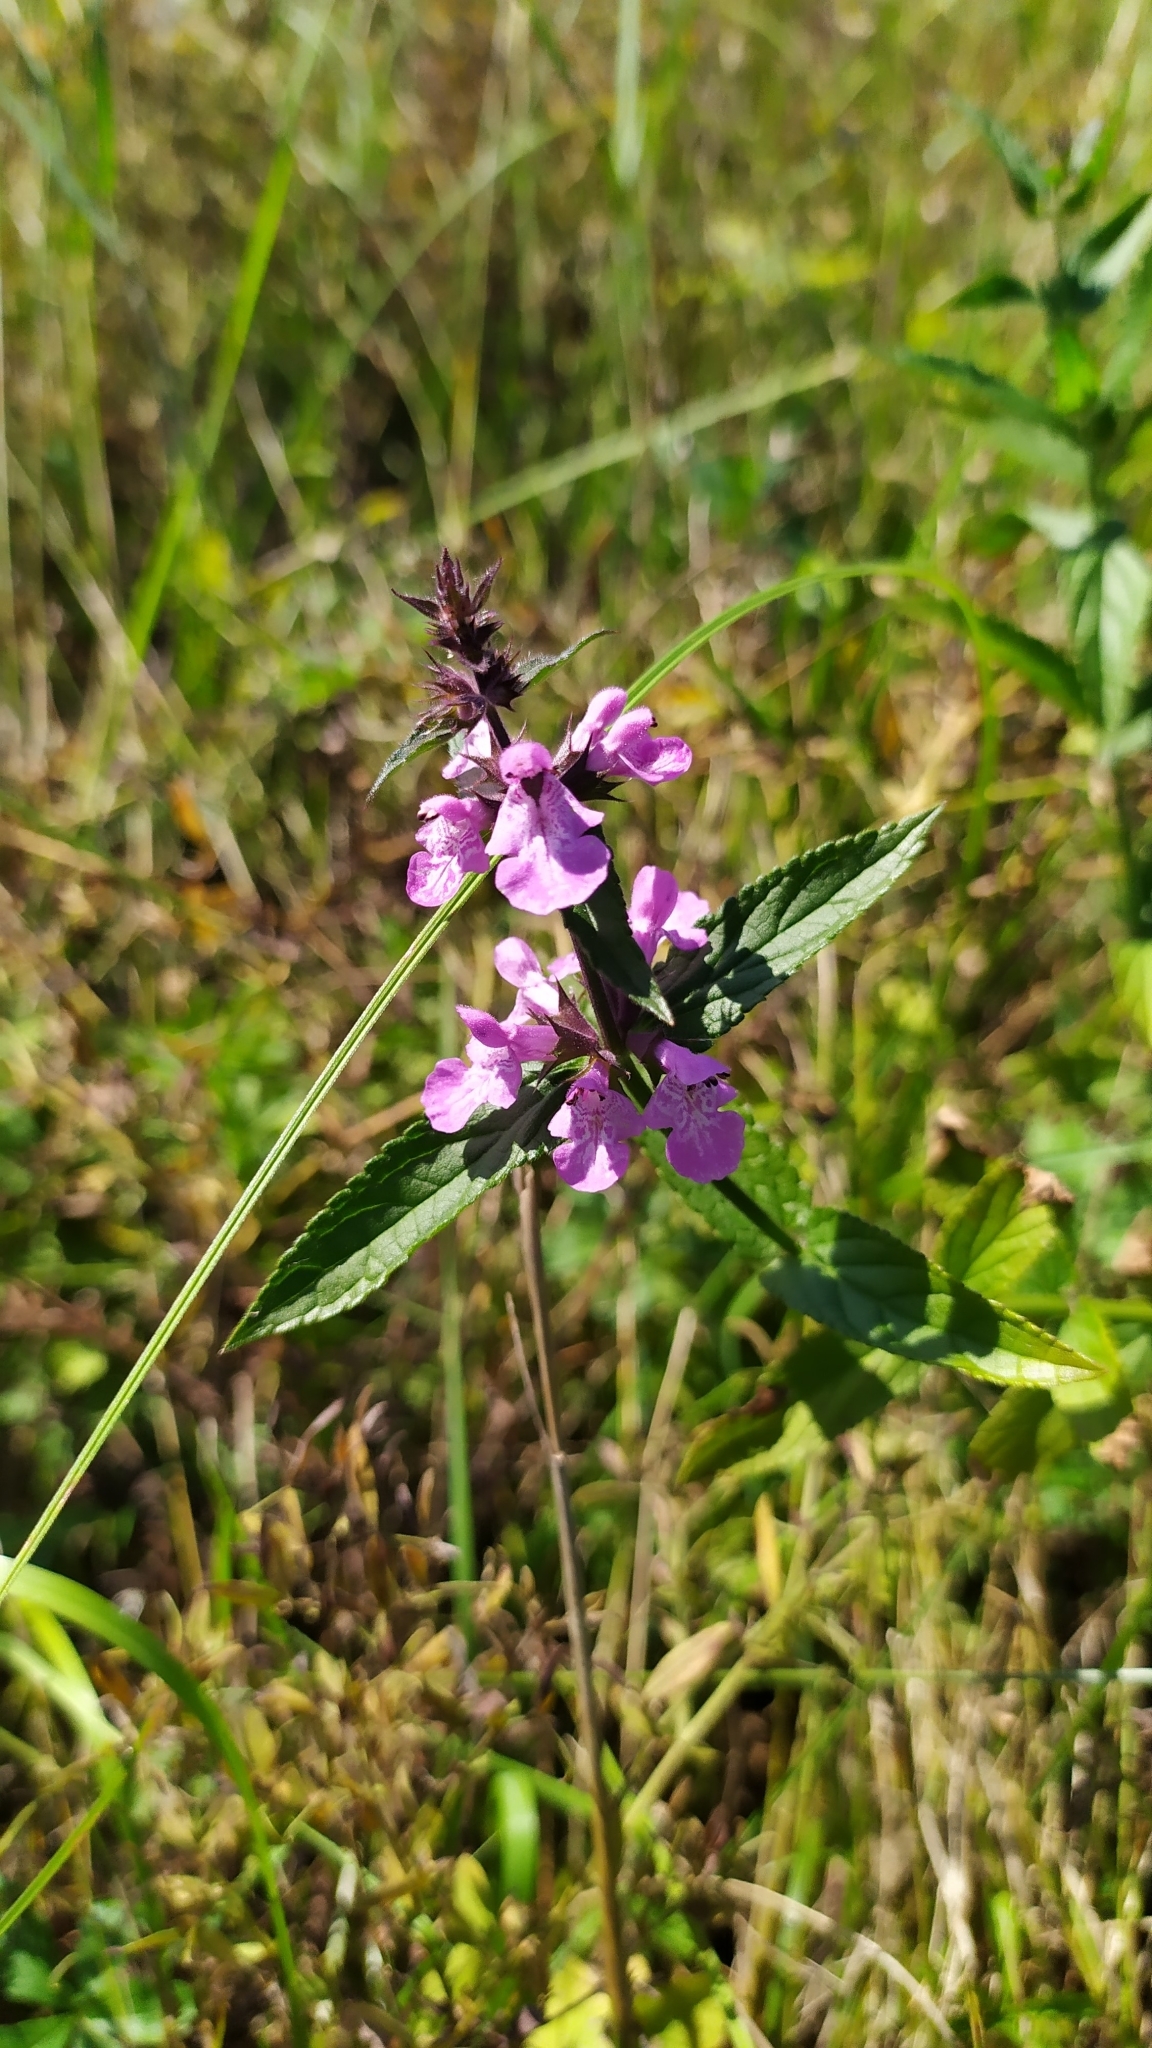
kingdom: Plantae
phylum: Tracheophyta
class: Magnoliopsida
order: Lamiales
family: Lamiaceae
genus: Stachys
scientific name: Stachys palustris
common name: Marsh woundwort
